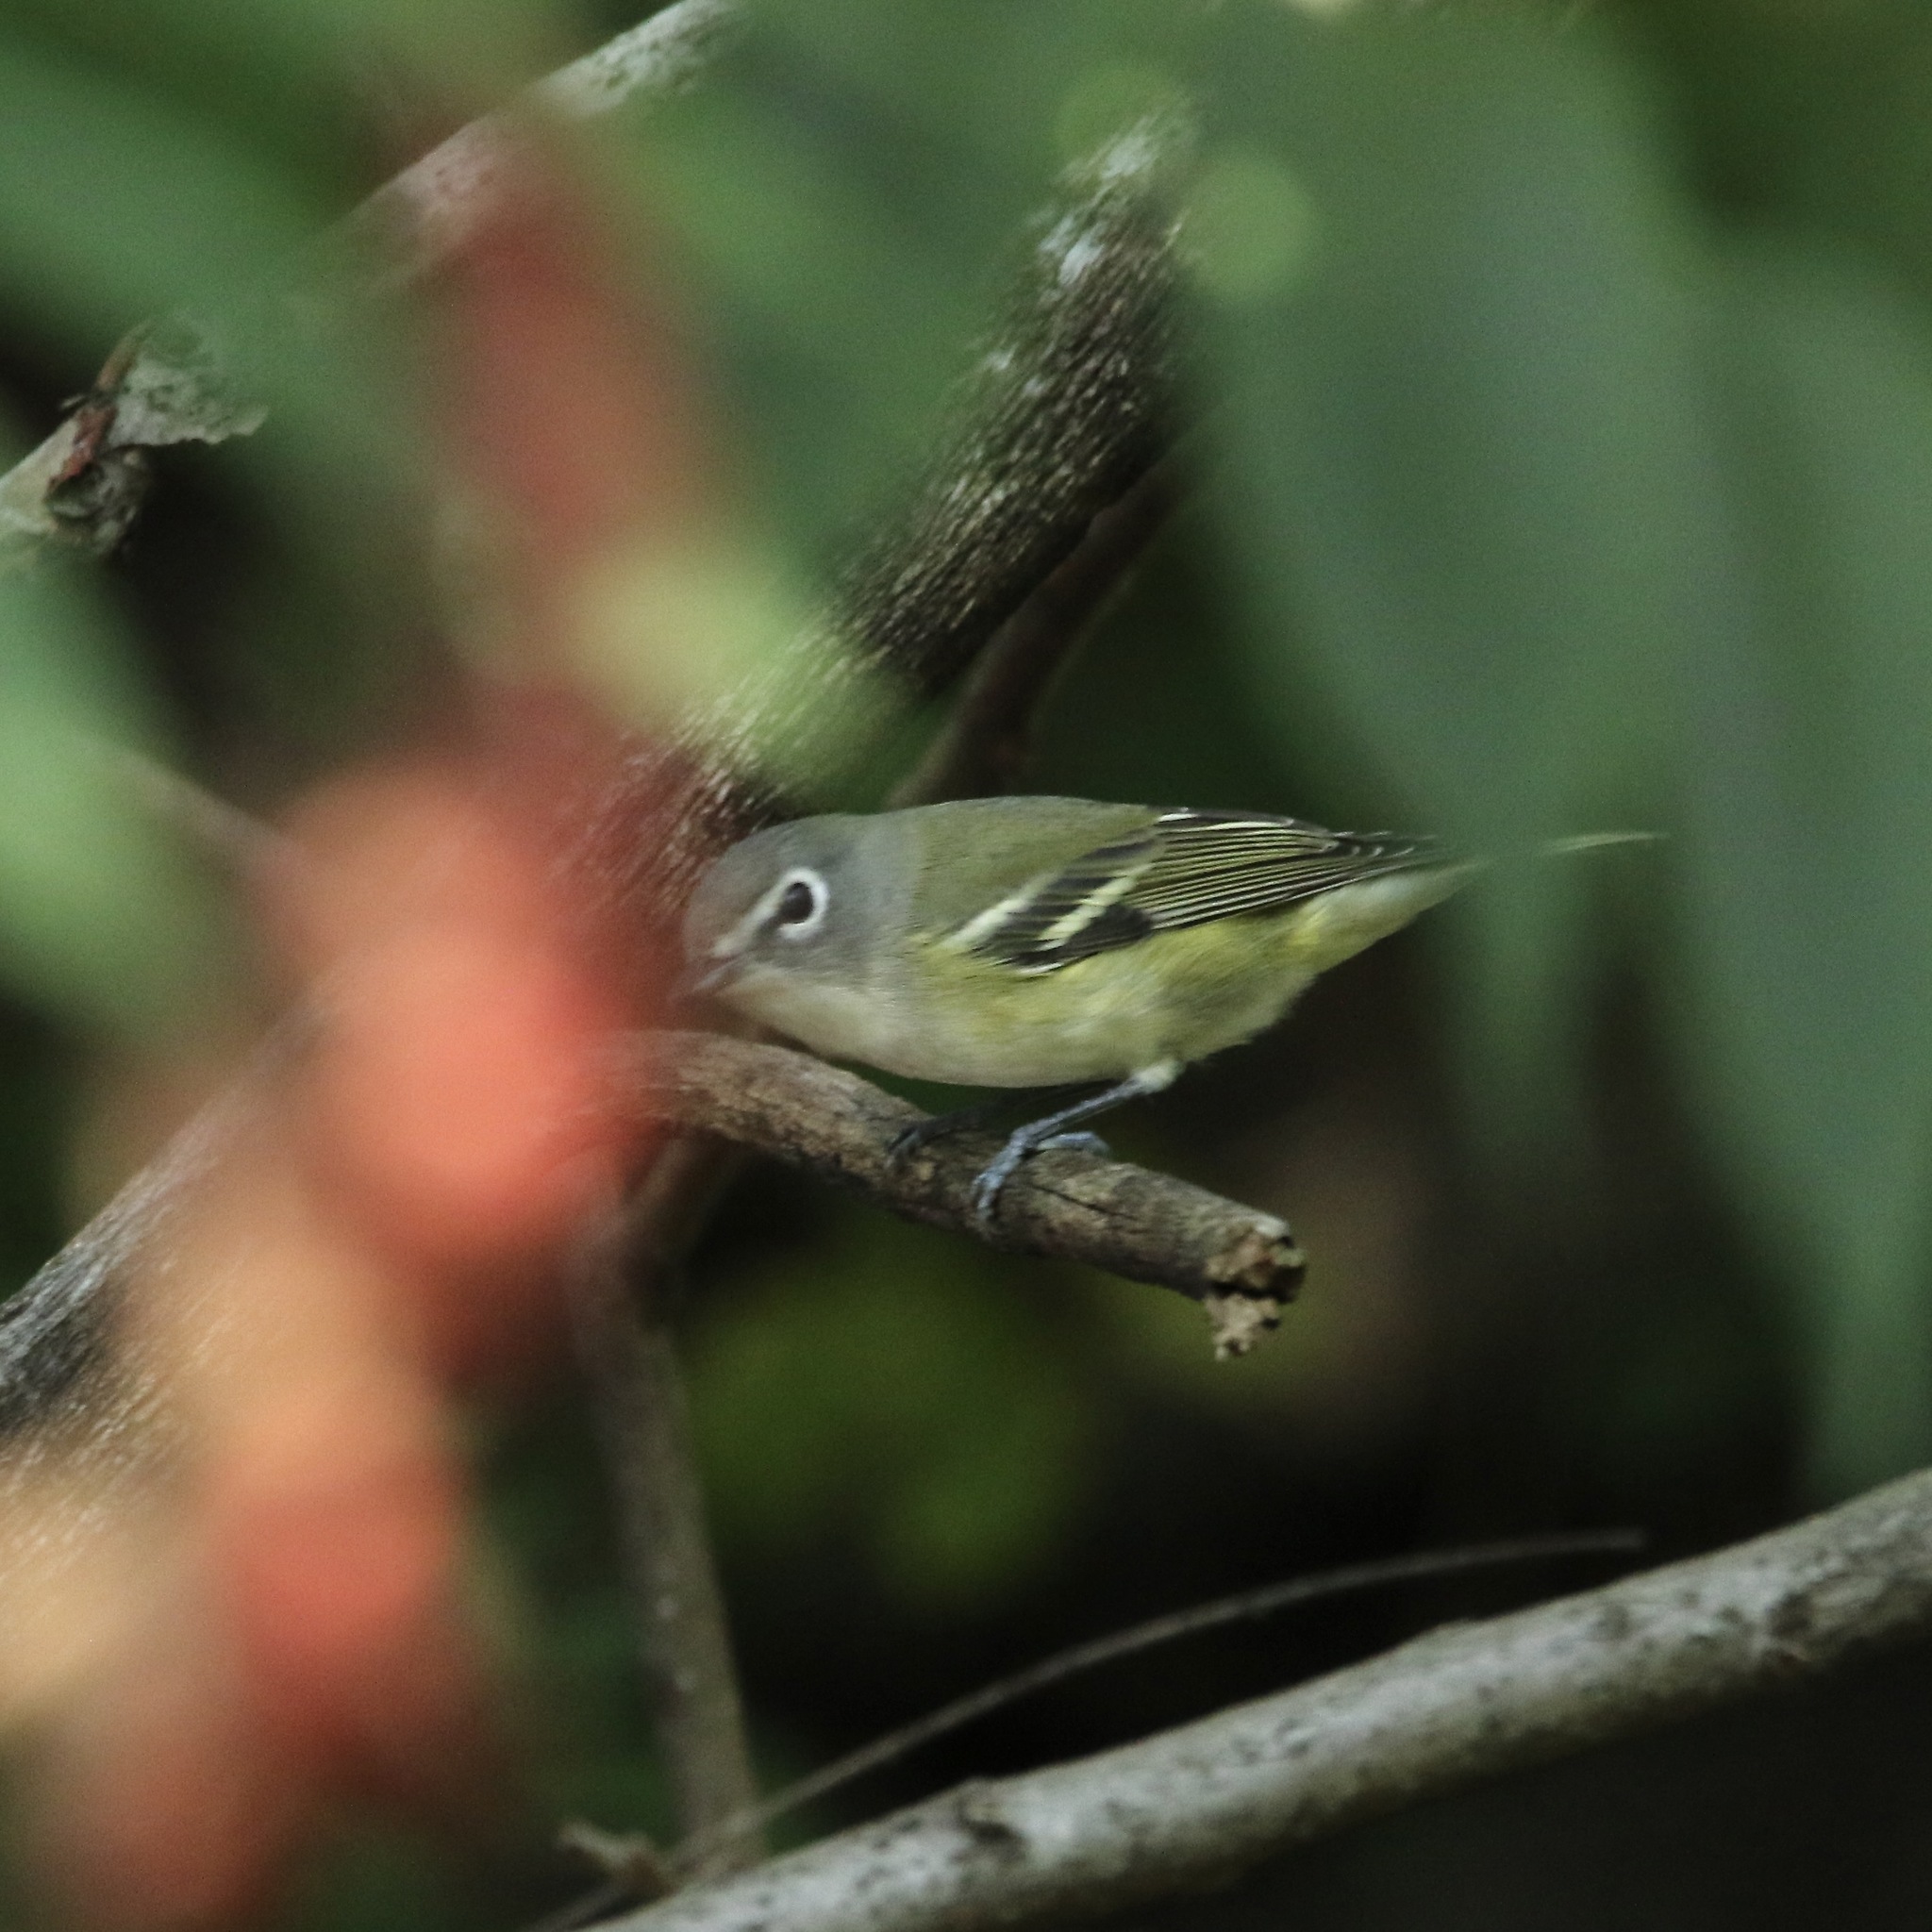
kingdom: Animalia
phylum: Chordata
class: Aves
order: Passeriformes
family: Vireonidae
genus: Vireo
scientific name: Vireo solitarius
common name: Blue-headed vireo
